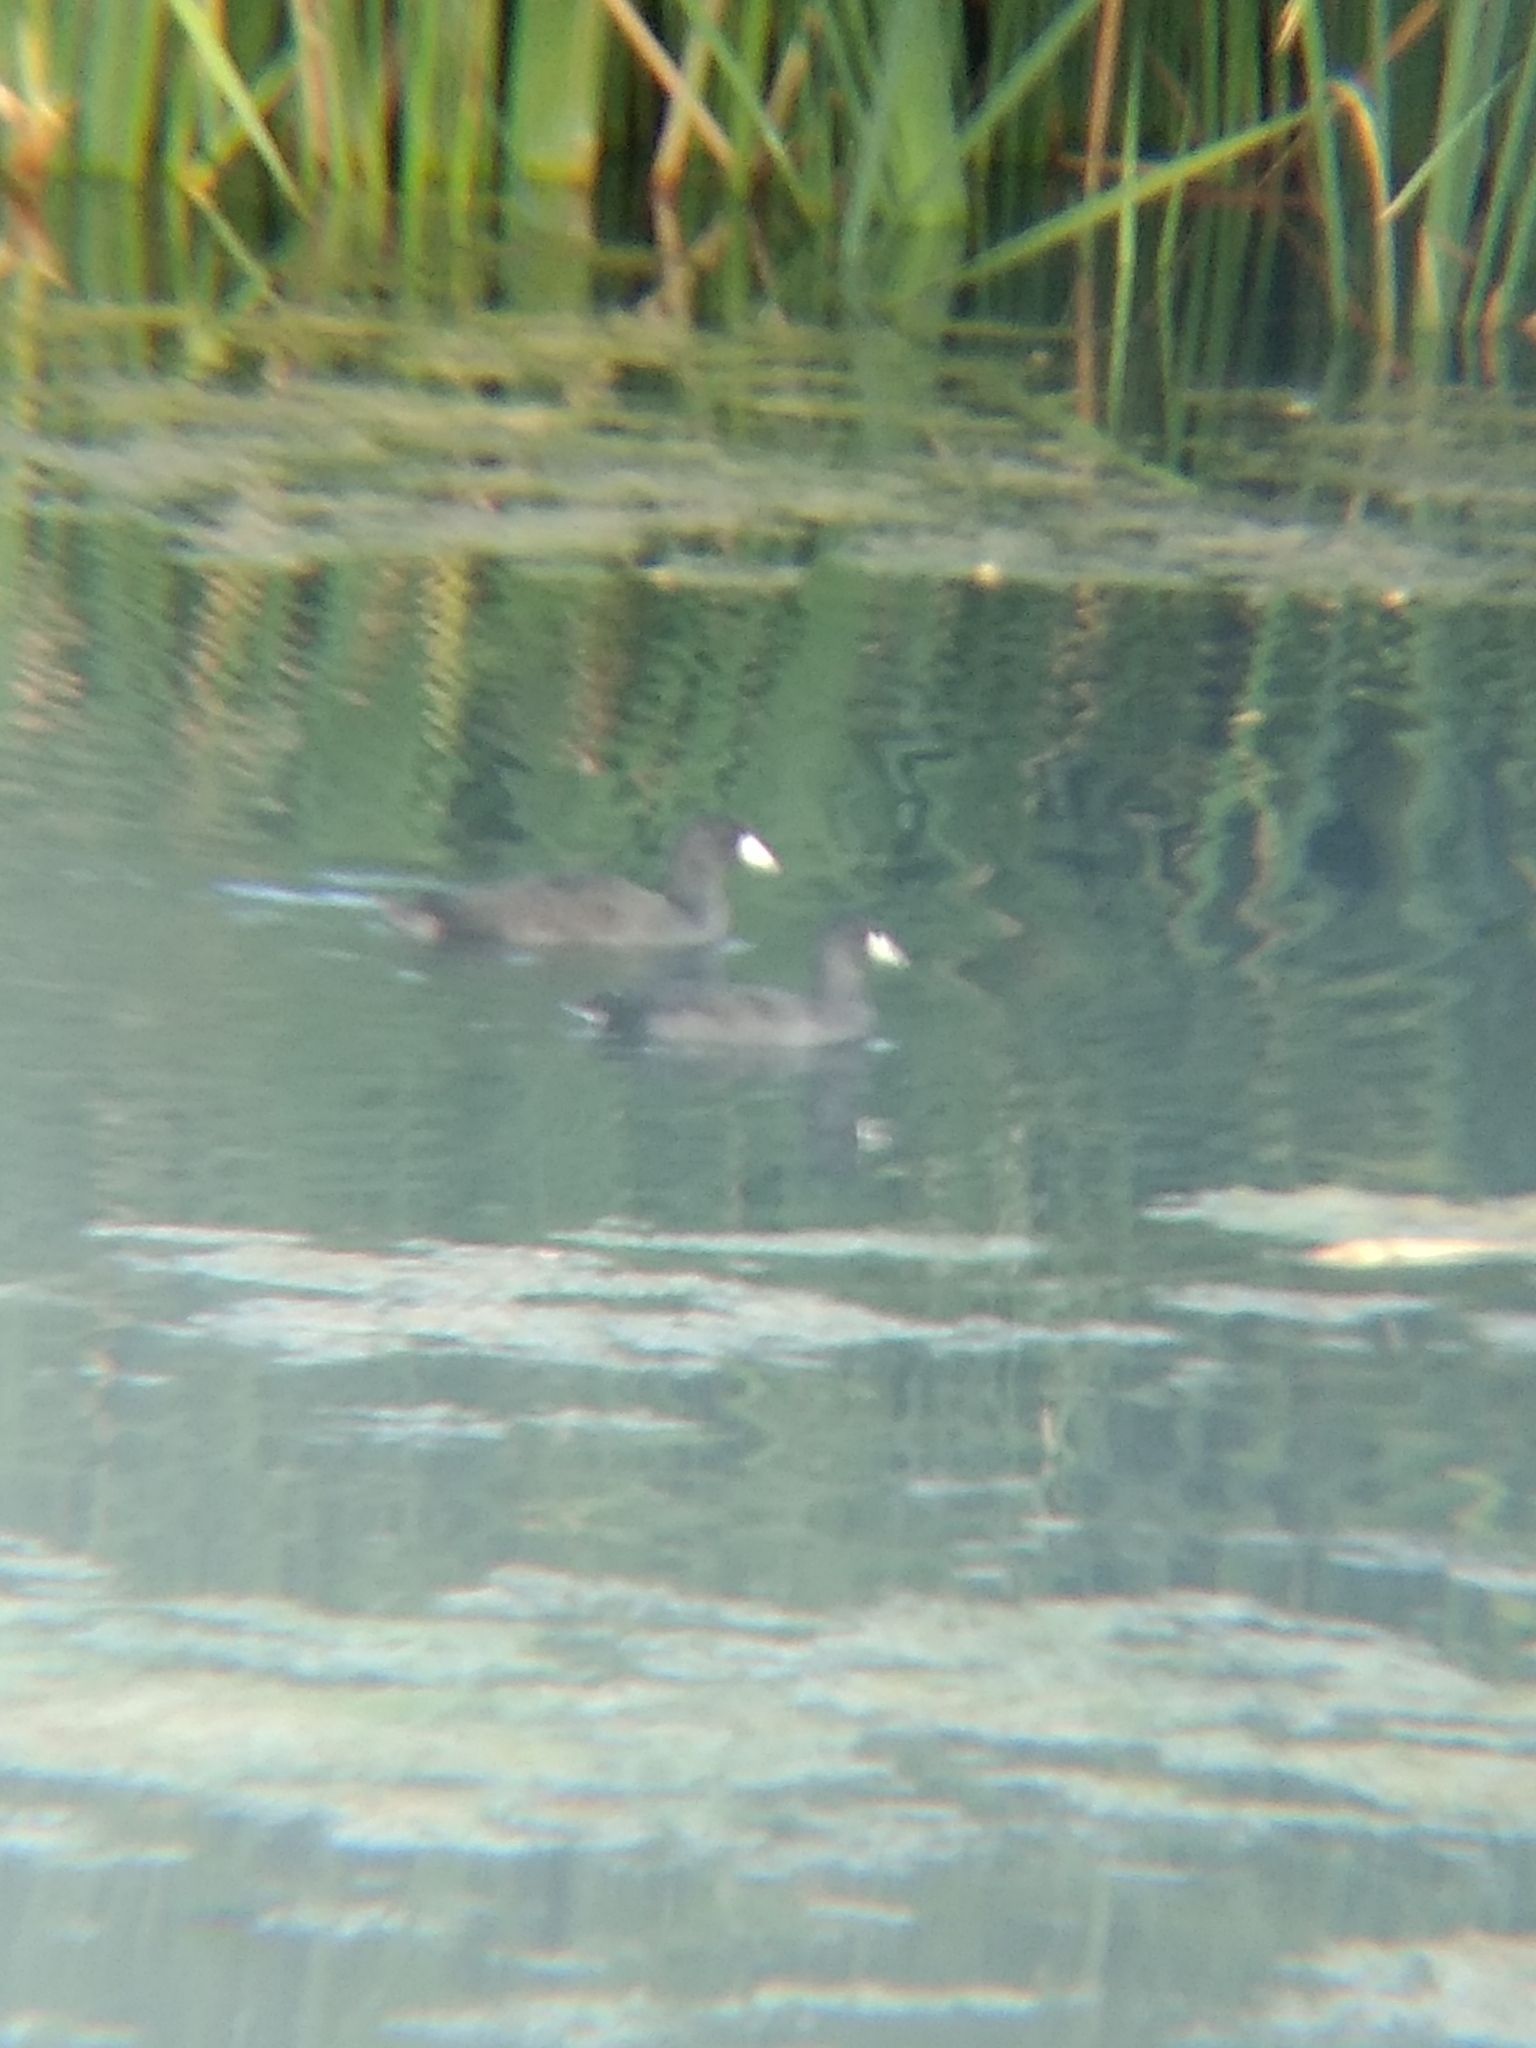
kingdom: Animalia
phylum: Chordata
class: Aves
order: Gruiformes
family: Rallidae
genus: Fulica
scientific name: Fulica americana
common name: American coot
